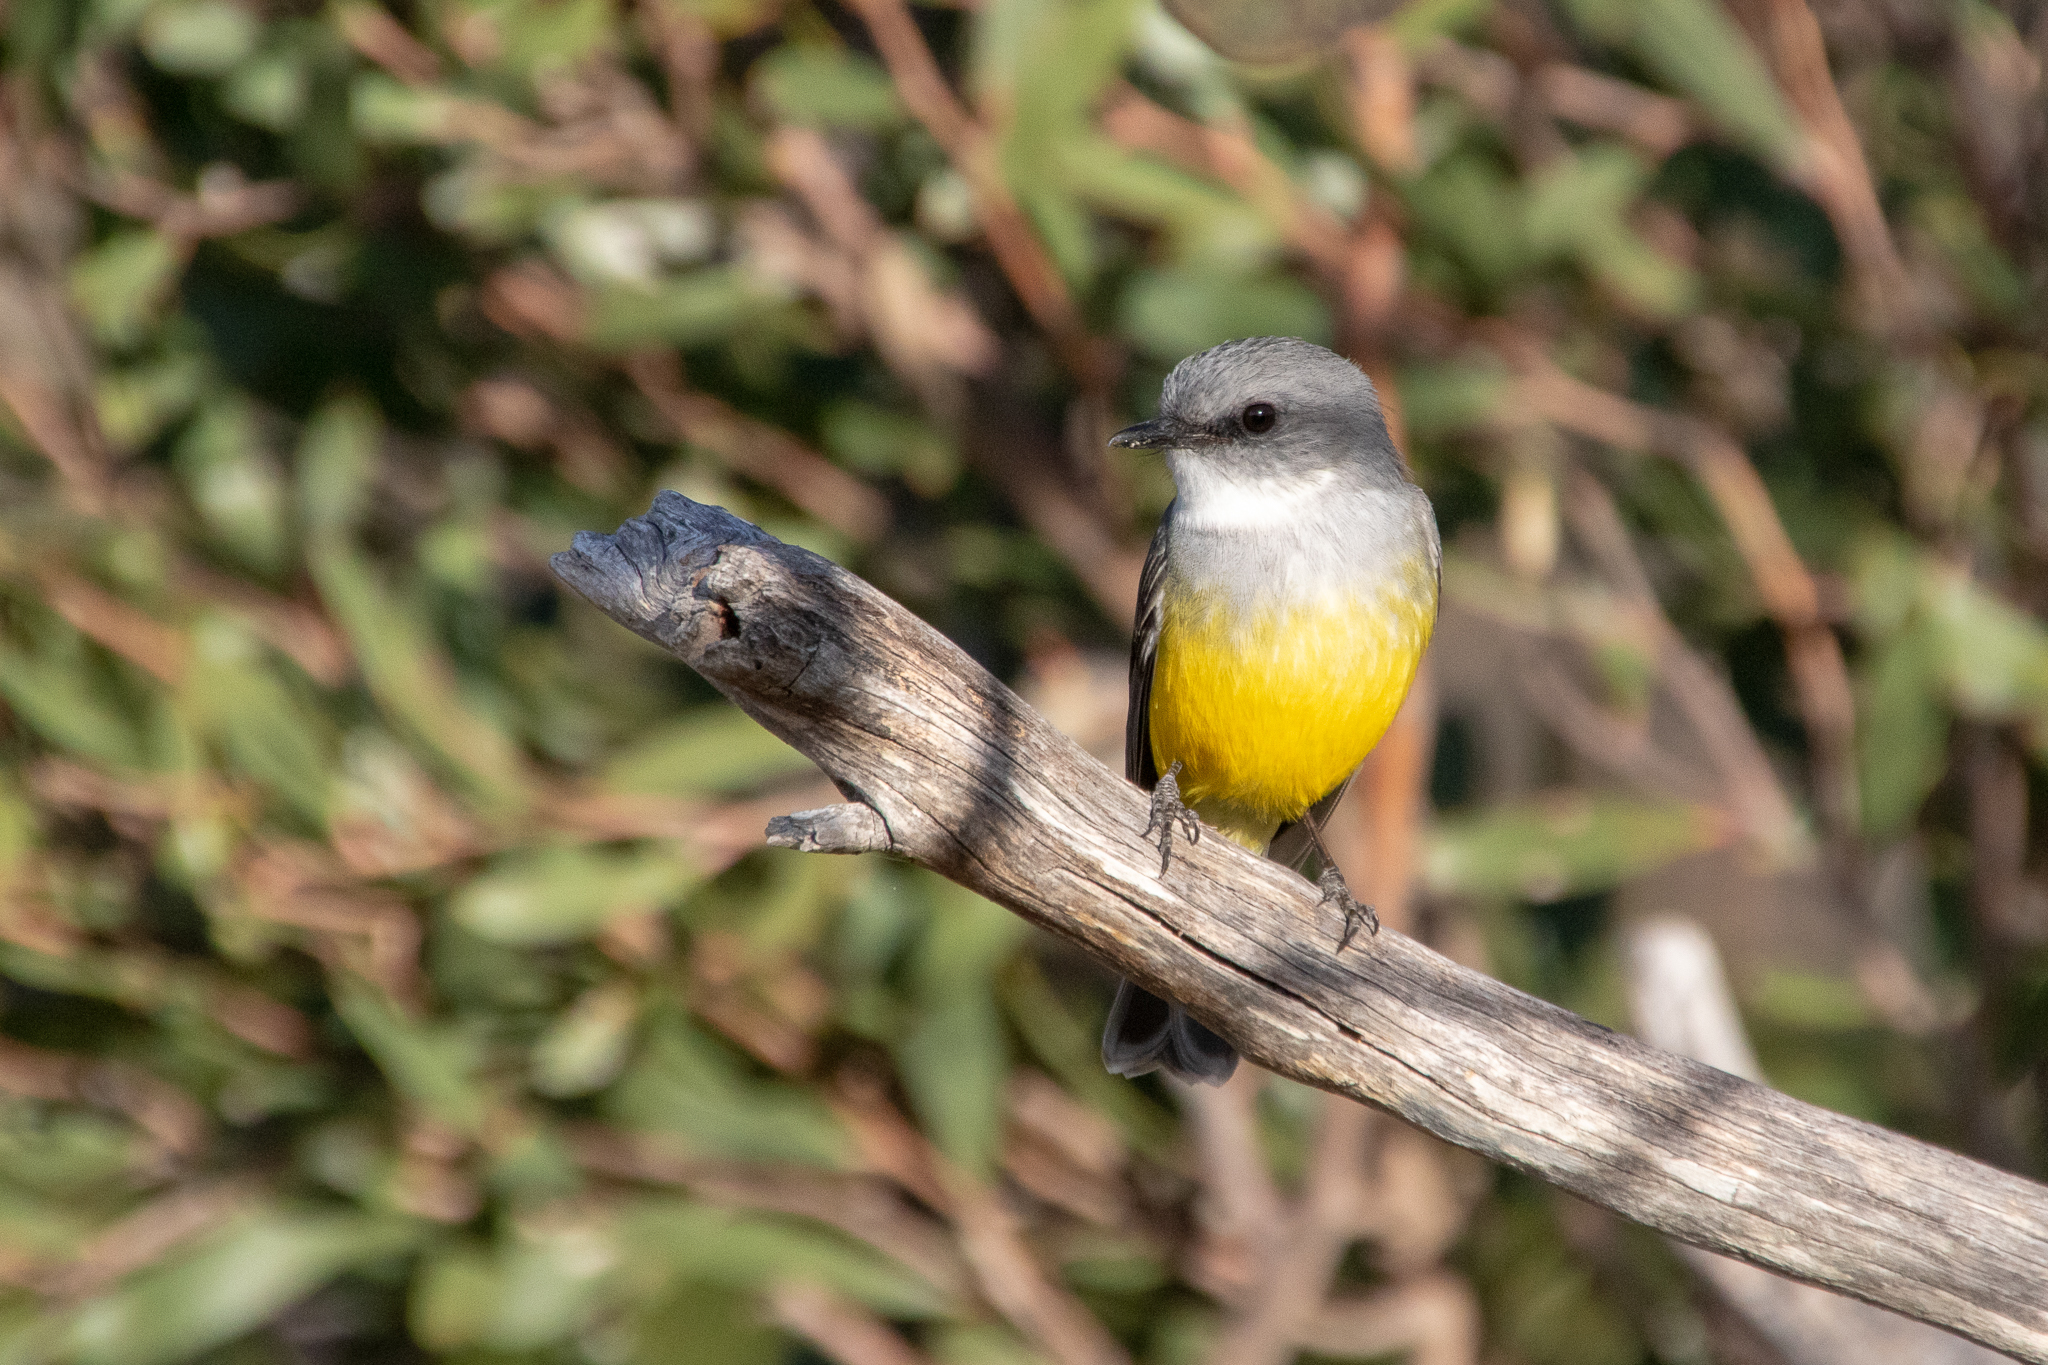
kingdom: Animalia
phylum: Chordata
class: Aves
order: Passeriformes
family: Petroicidae
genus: Eopsaltria
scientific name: Eopsaltria griseogularis
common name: Western yellow robin
